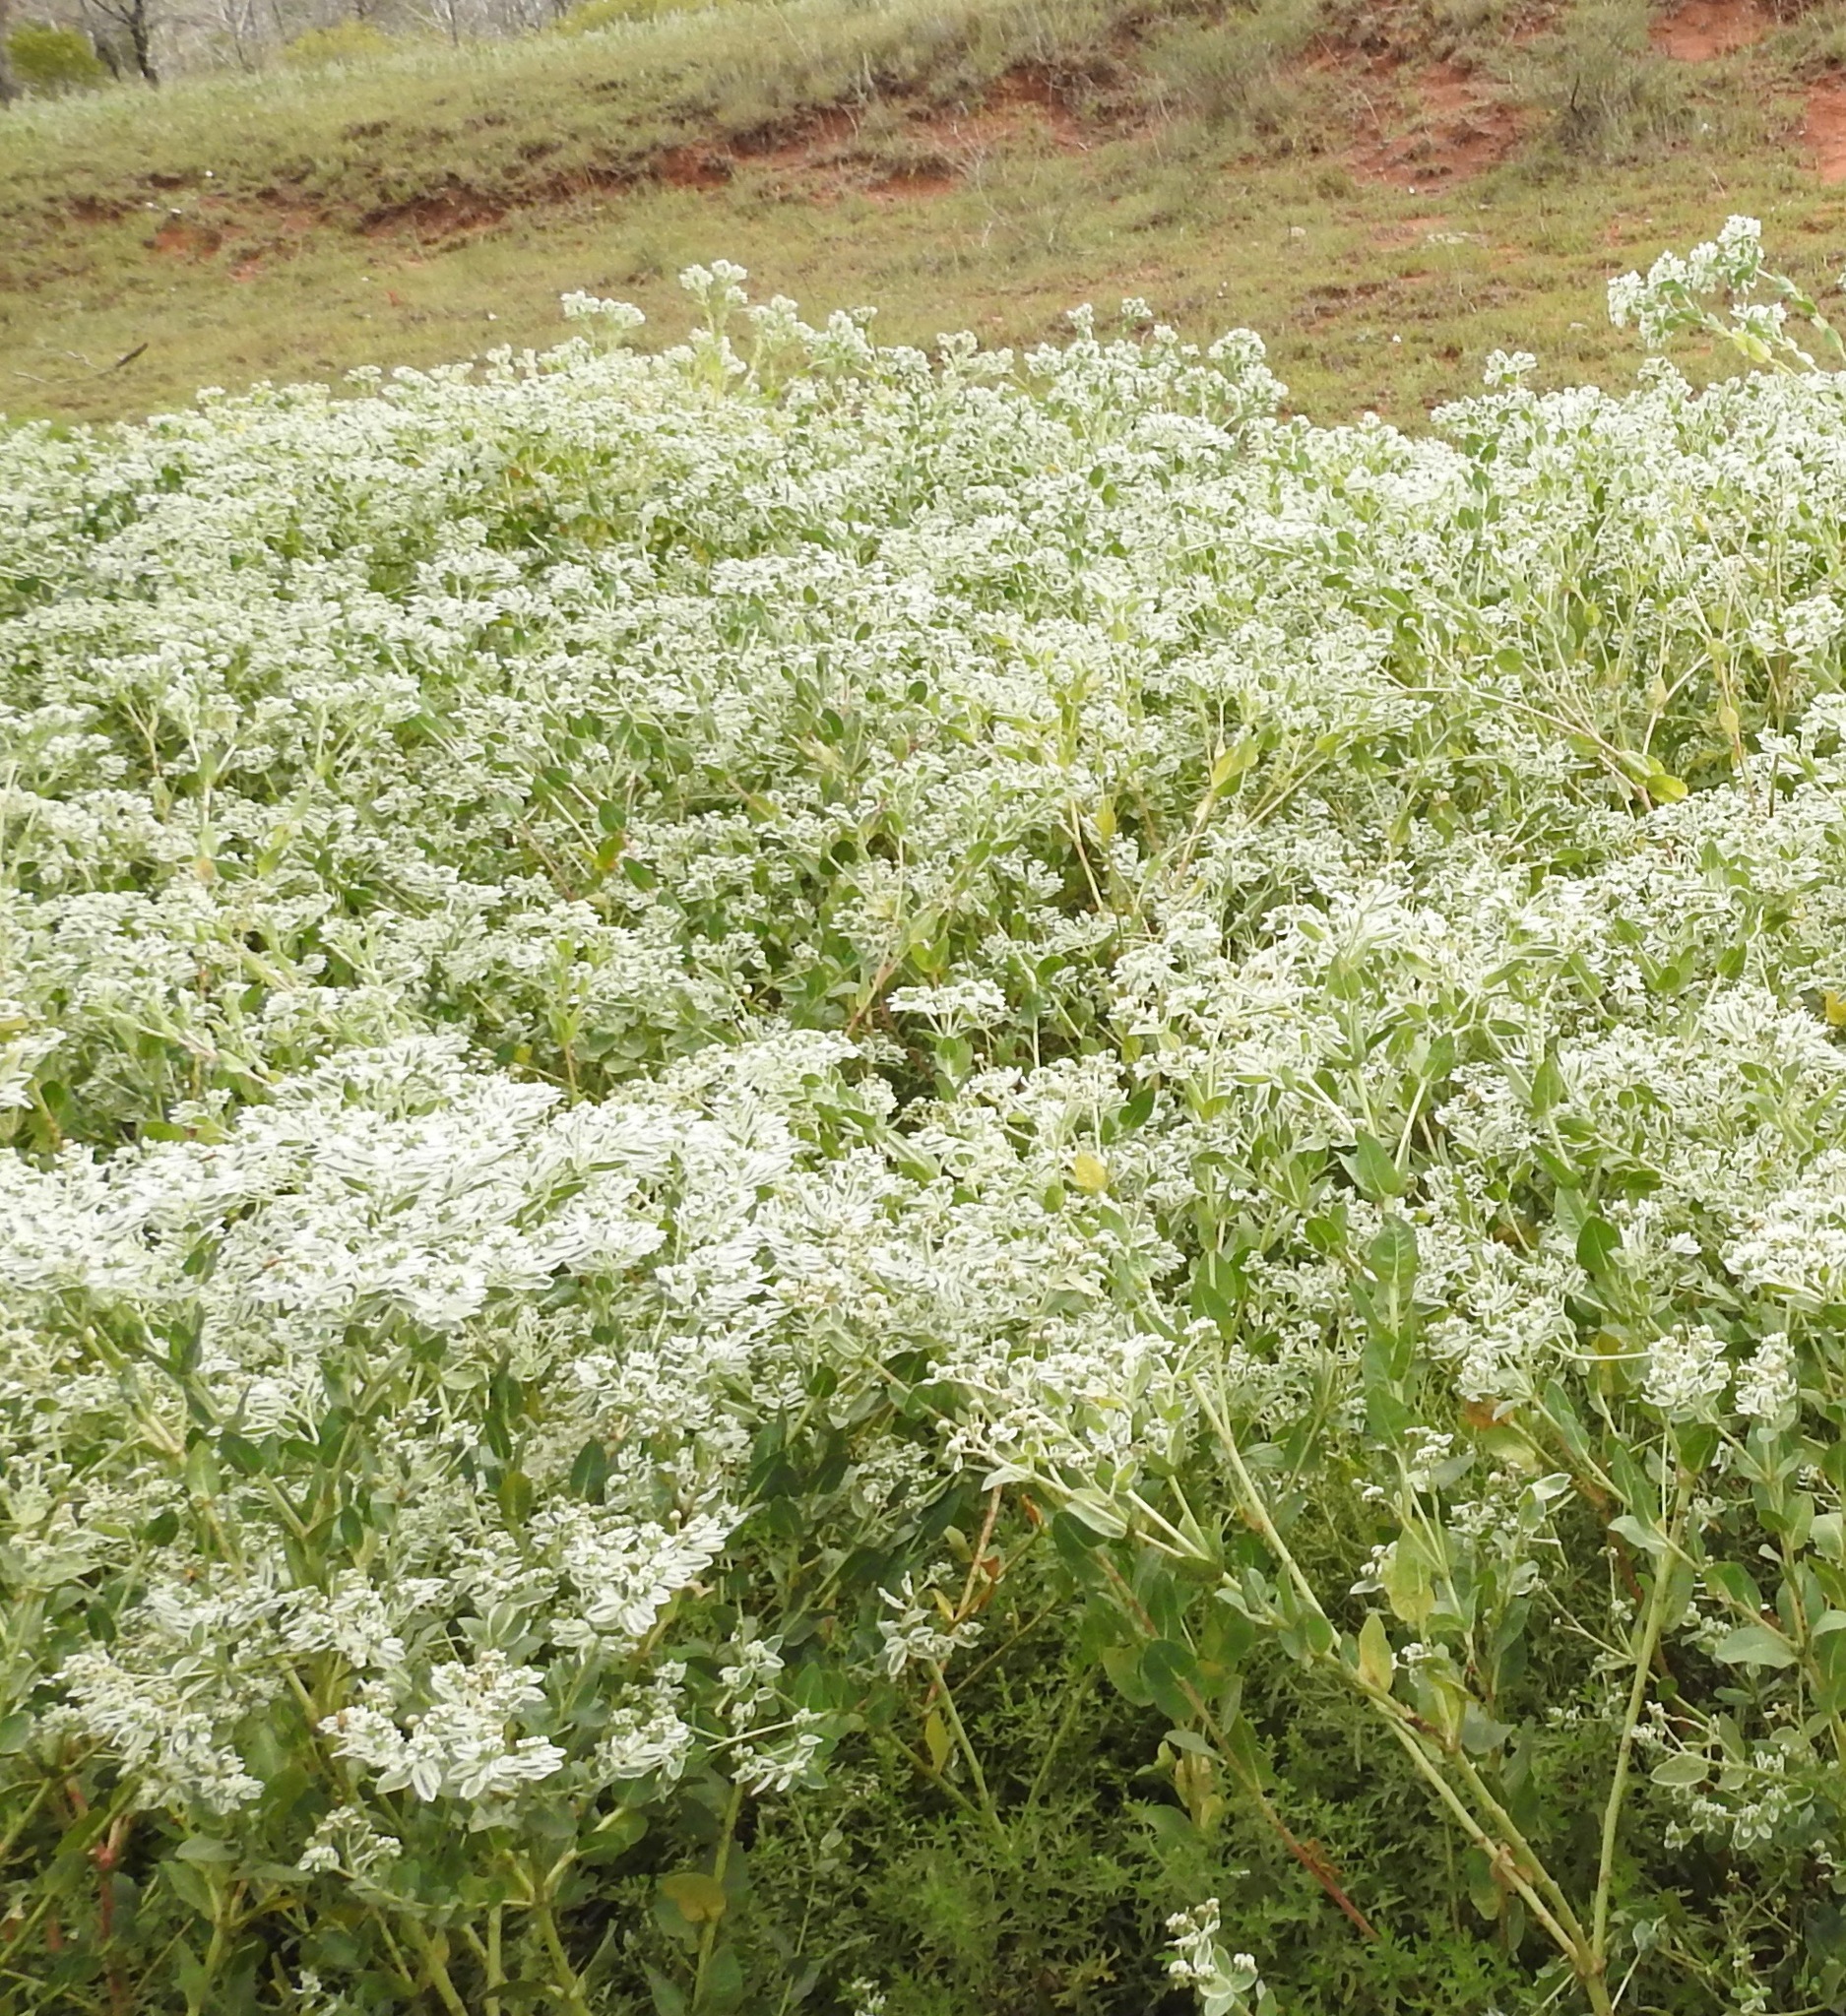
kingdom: Plantae
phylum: Tracheophyta
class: Magnoliopsida
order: Malpighiales
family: Euphorbiaceae
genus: Euphorbia
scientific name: Euphorbia marginata
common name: Ghostweed
